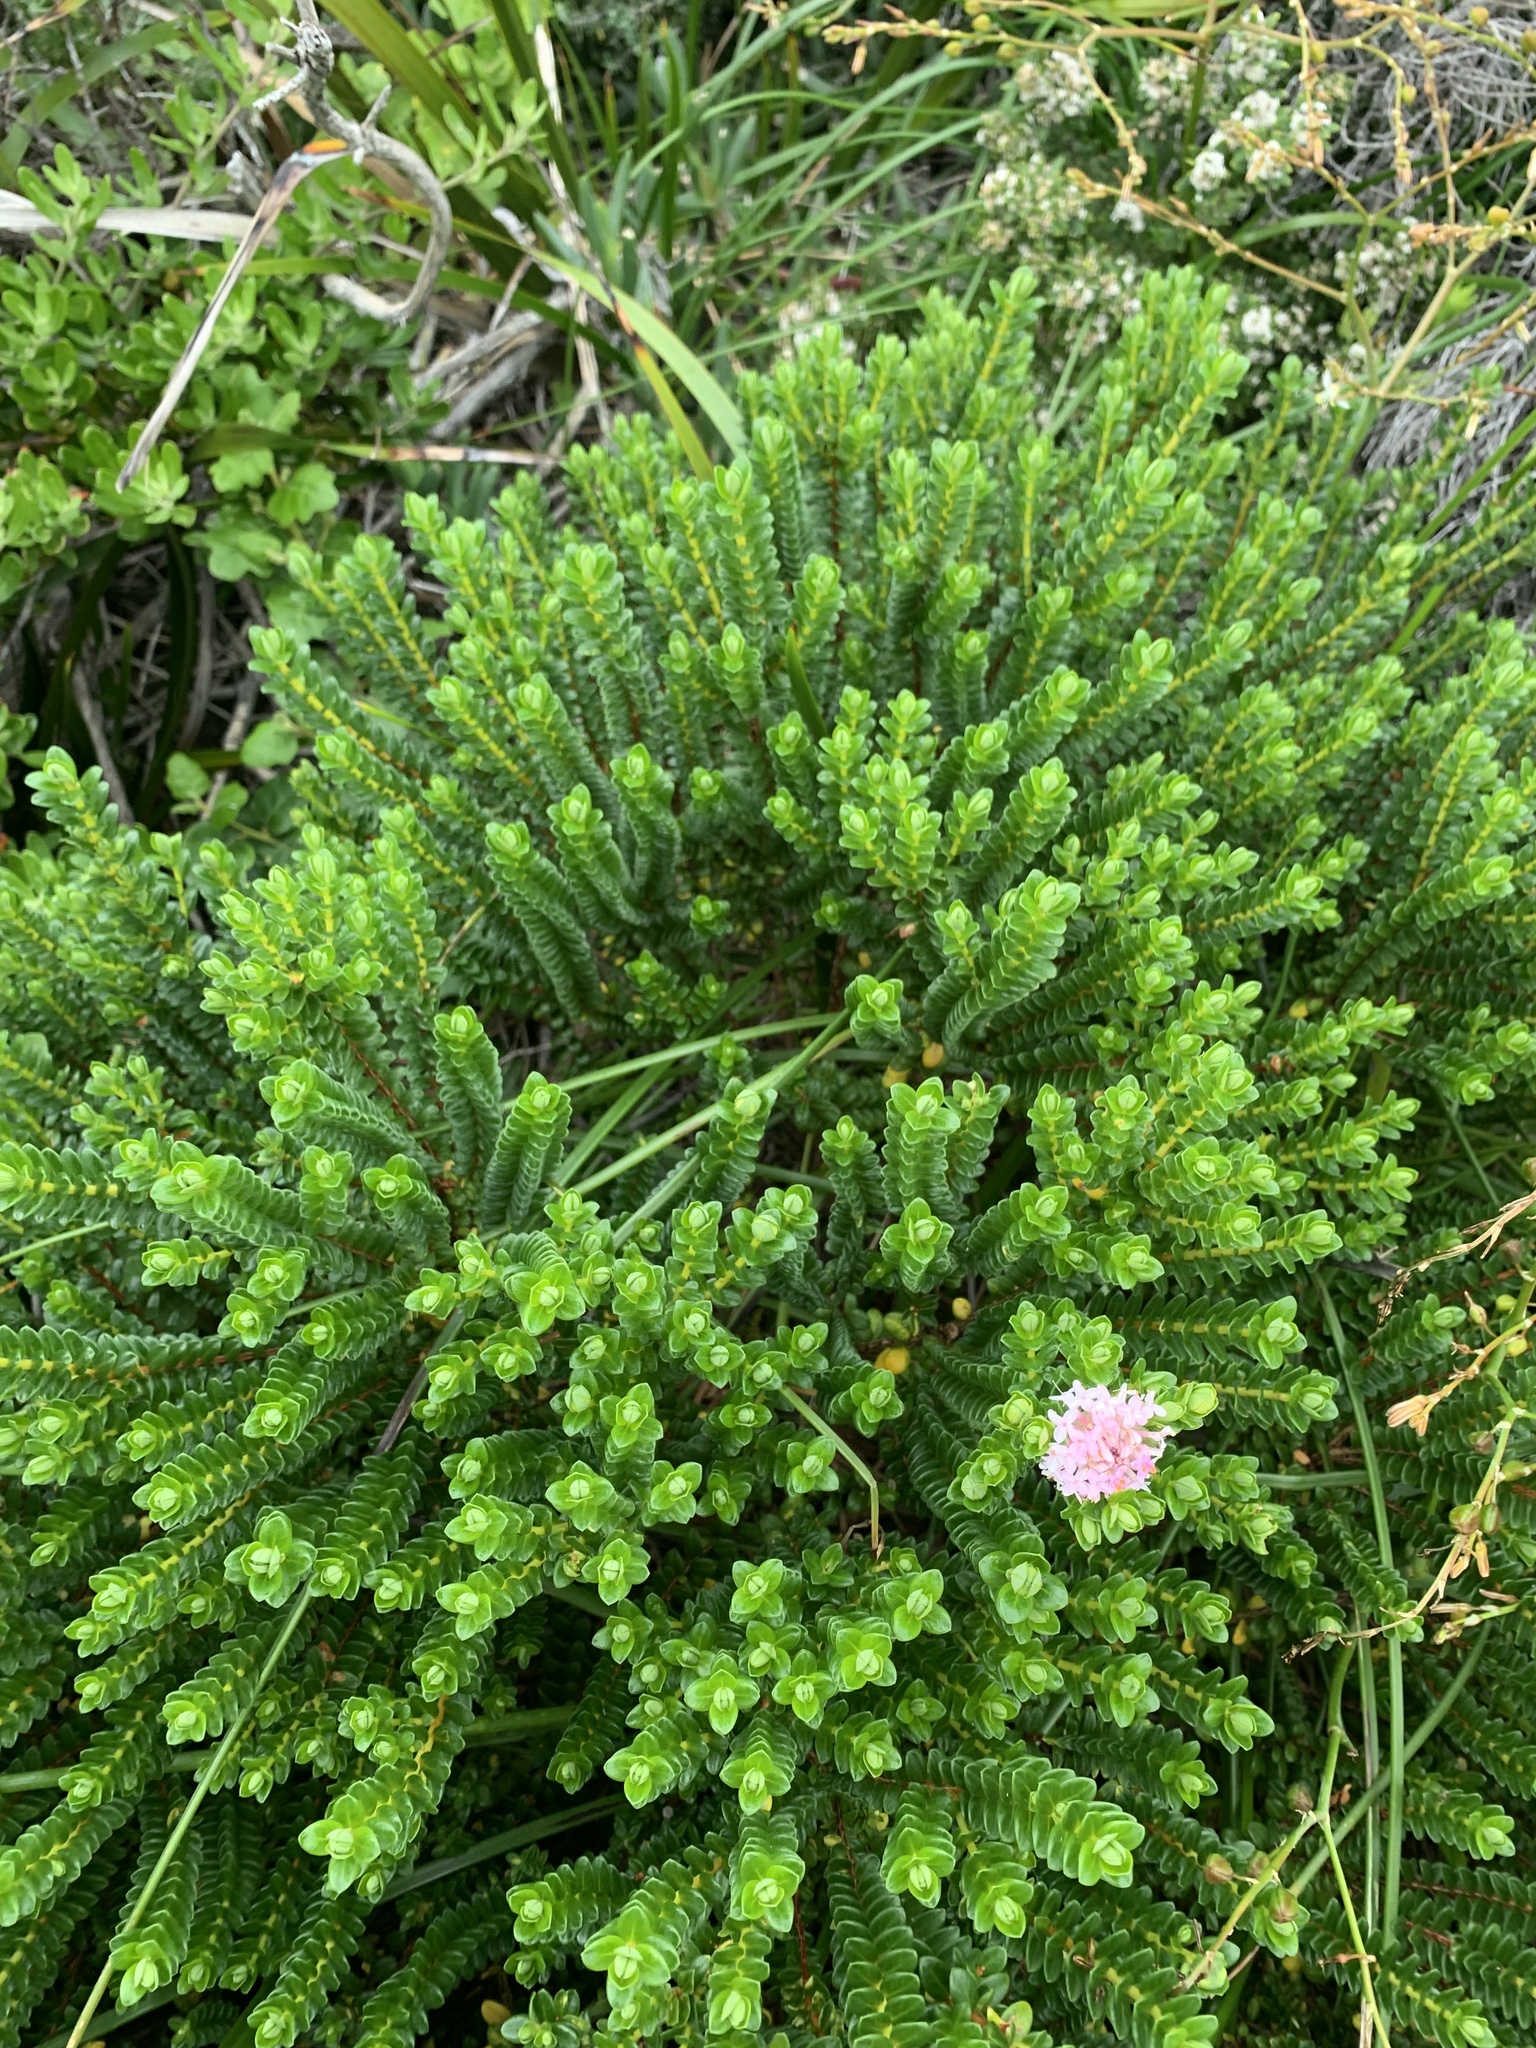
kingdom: Plantae
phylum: Tracheophyta
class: Magnoliopsida
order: Malvales
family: Thymelaeaceae
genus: Pimelea
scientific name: Pimelea ferruginea
